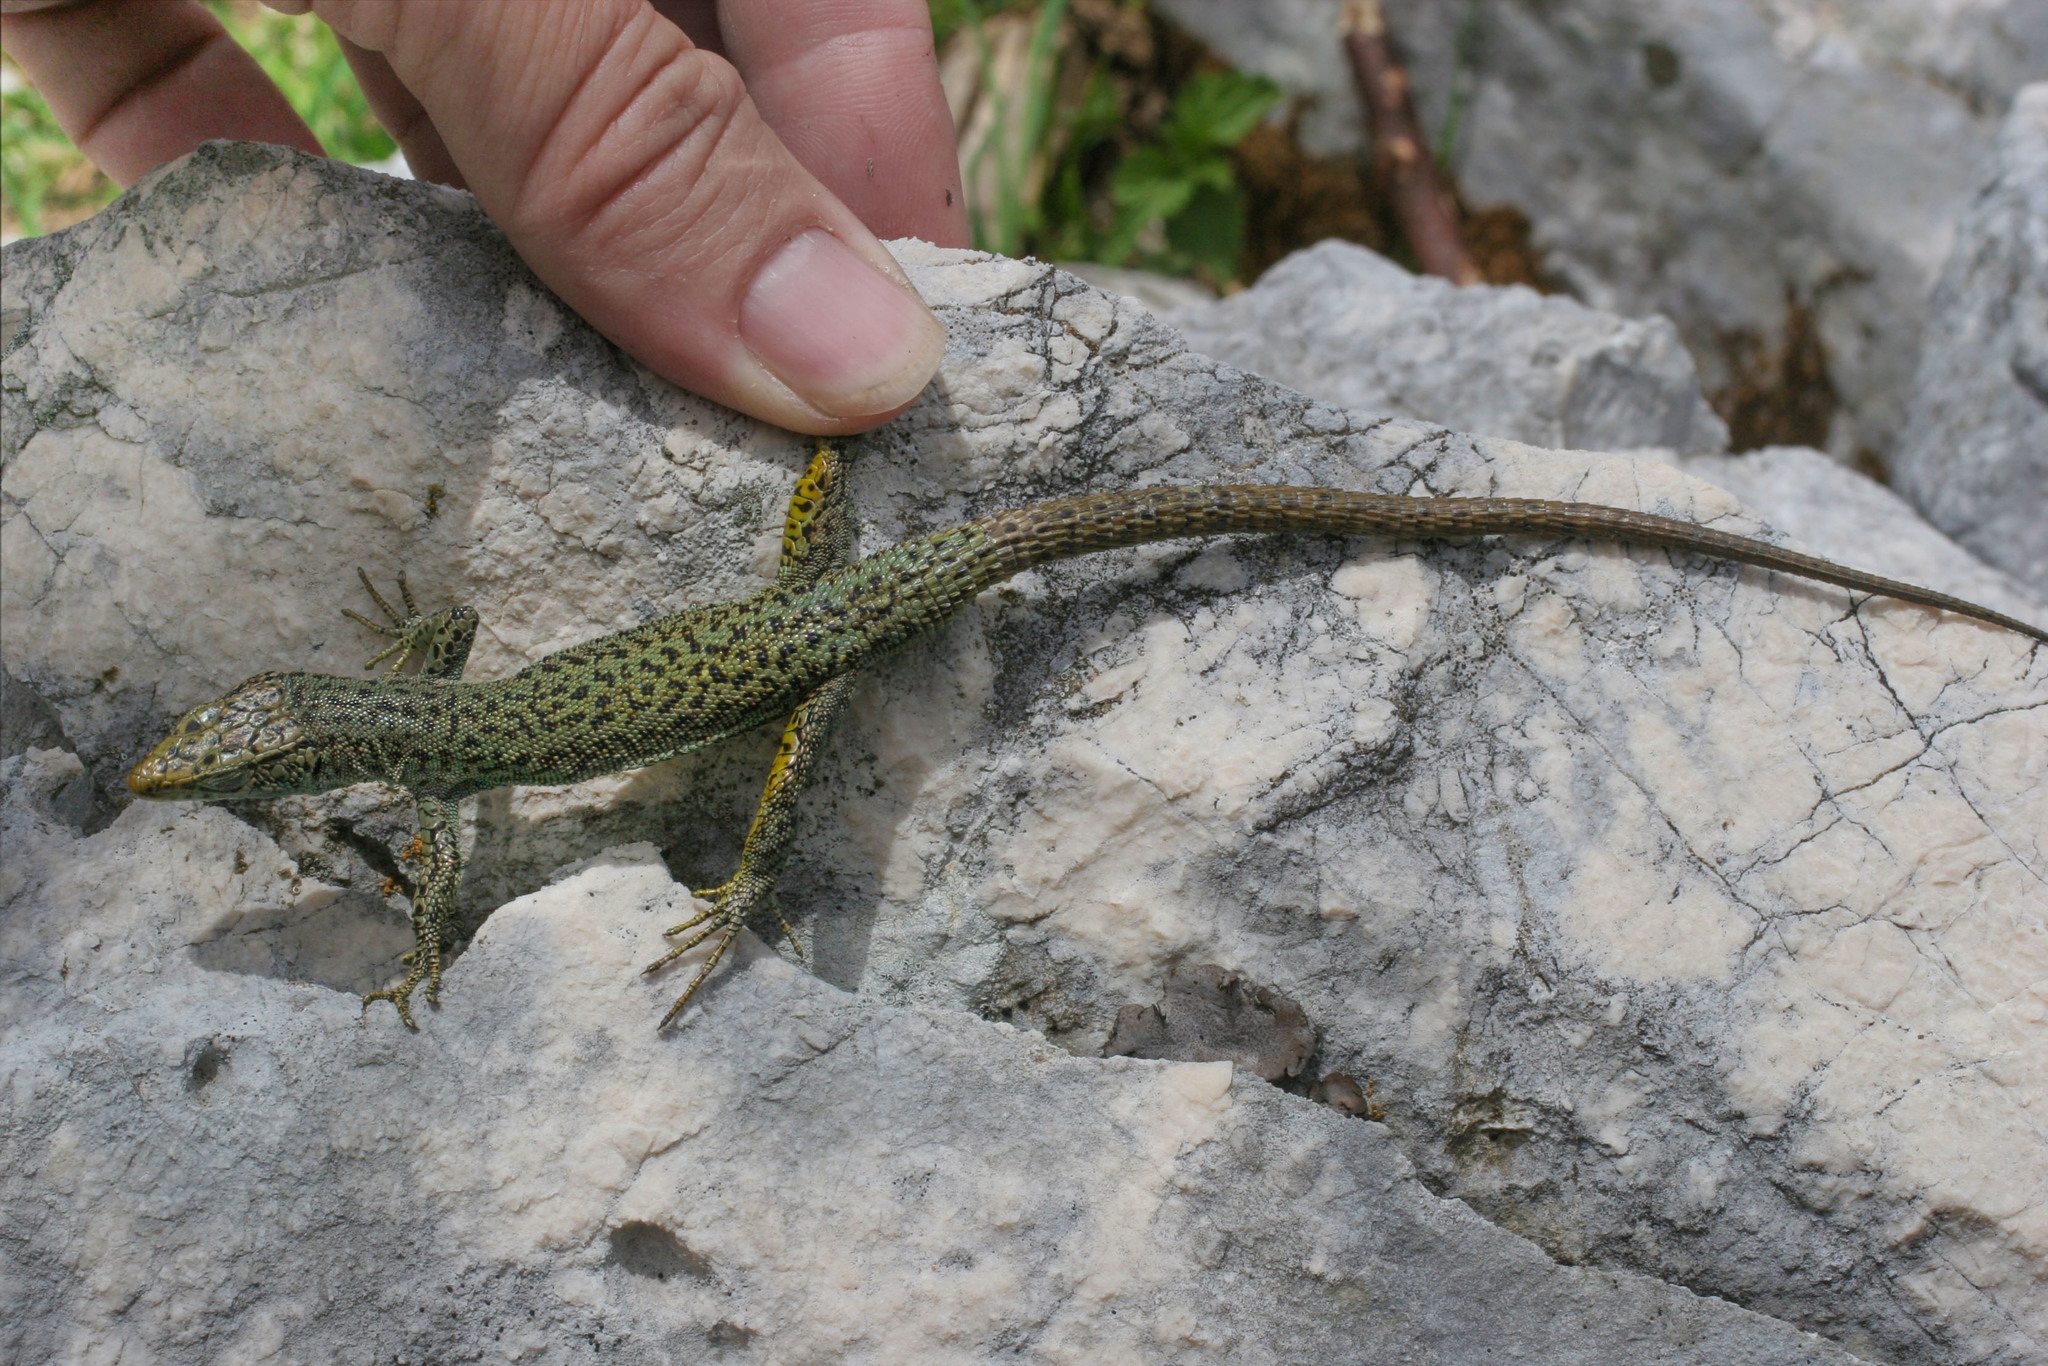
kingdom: Animalia
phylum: Chordata
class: Squamata
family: Lacertidae
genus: Dinarolacerta
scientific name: Dinarolacerta mosorensis
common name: Mosor rock lizard
